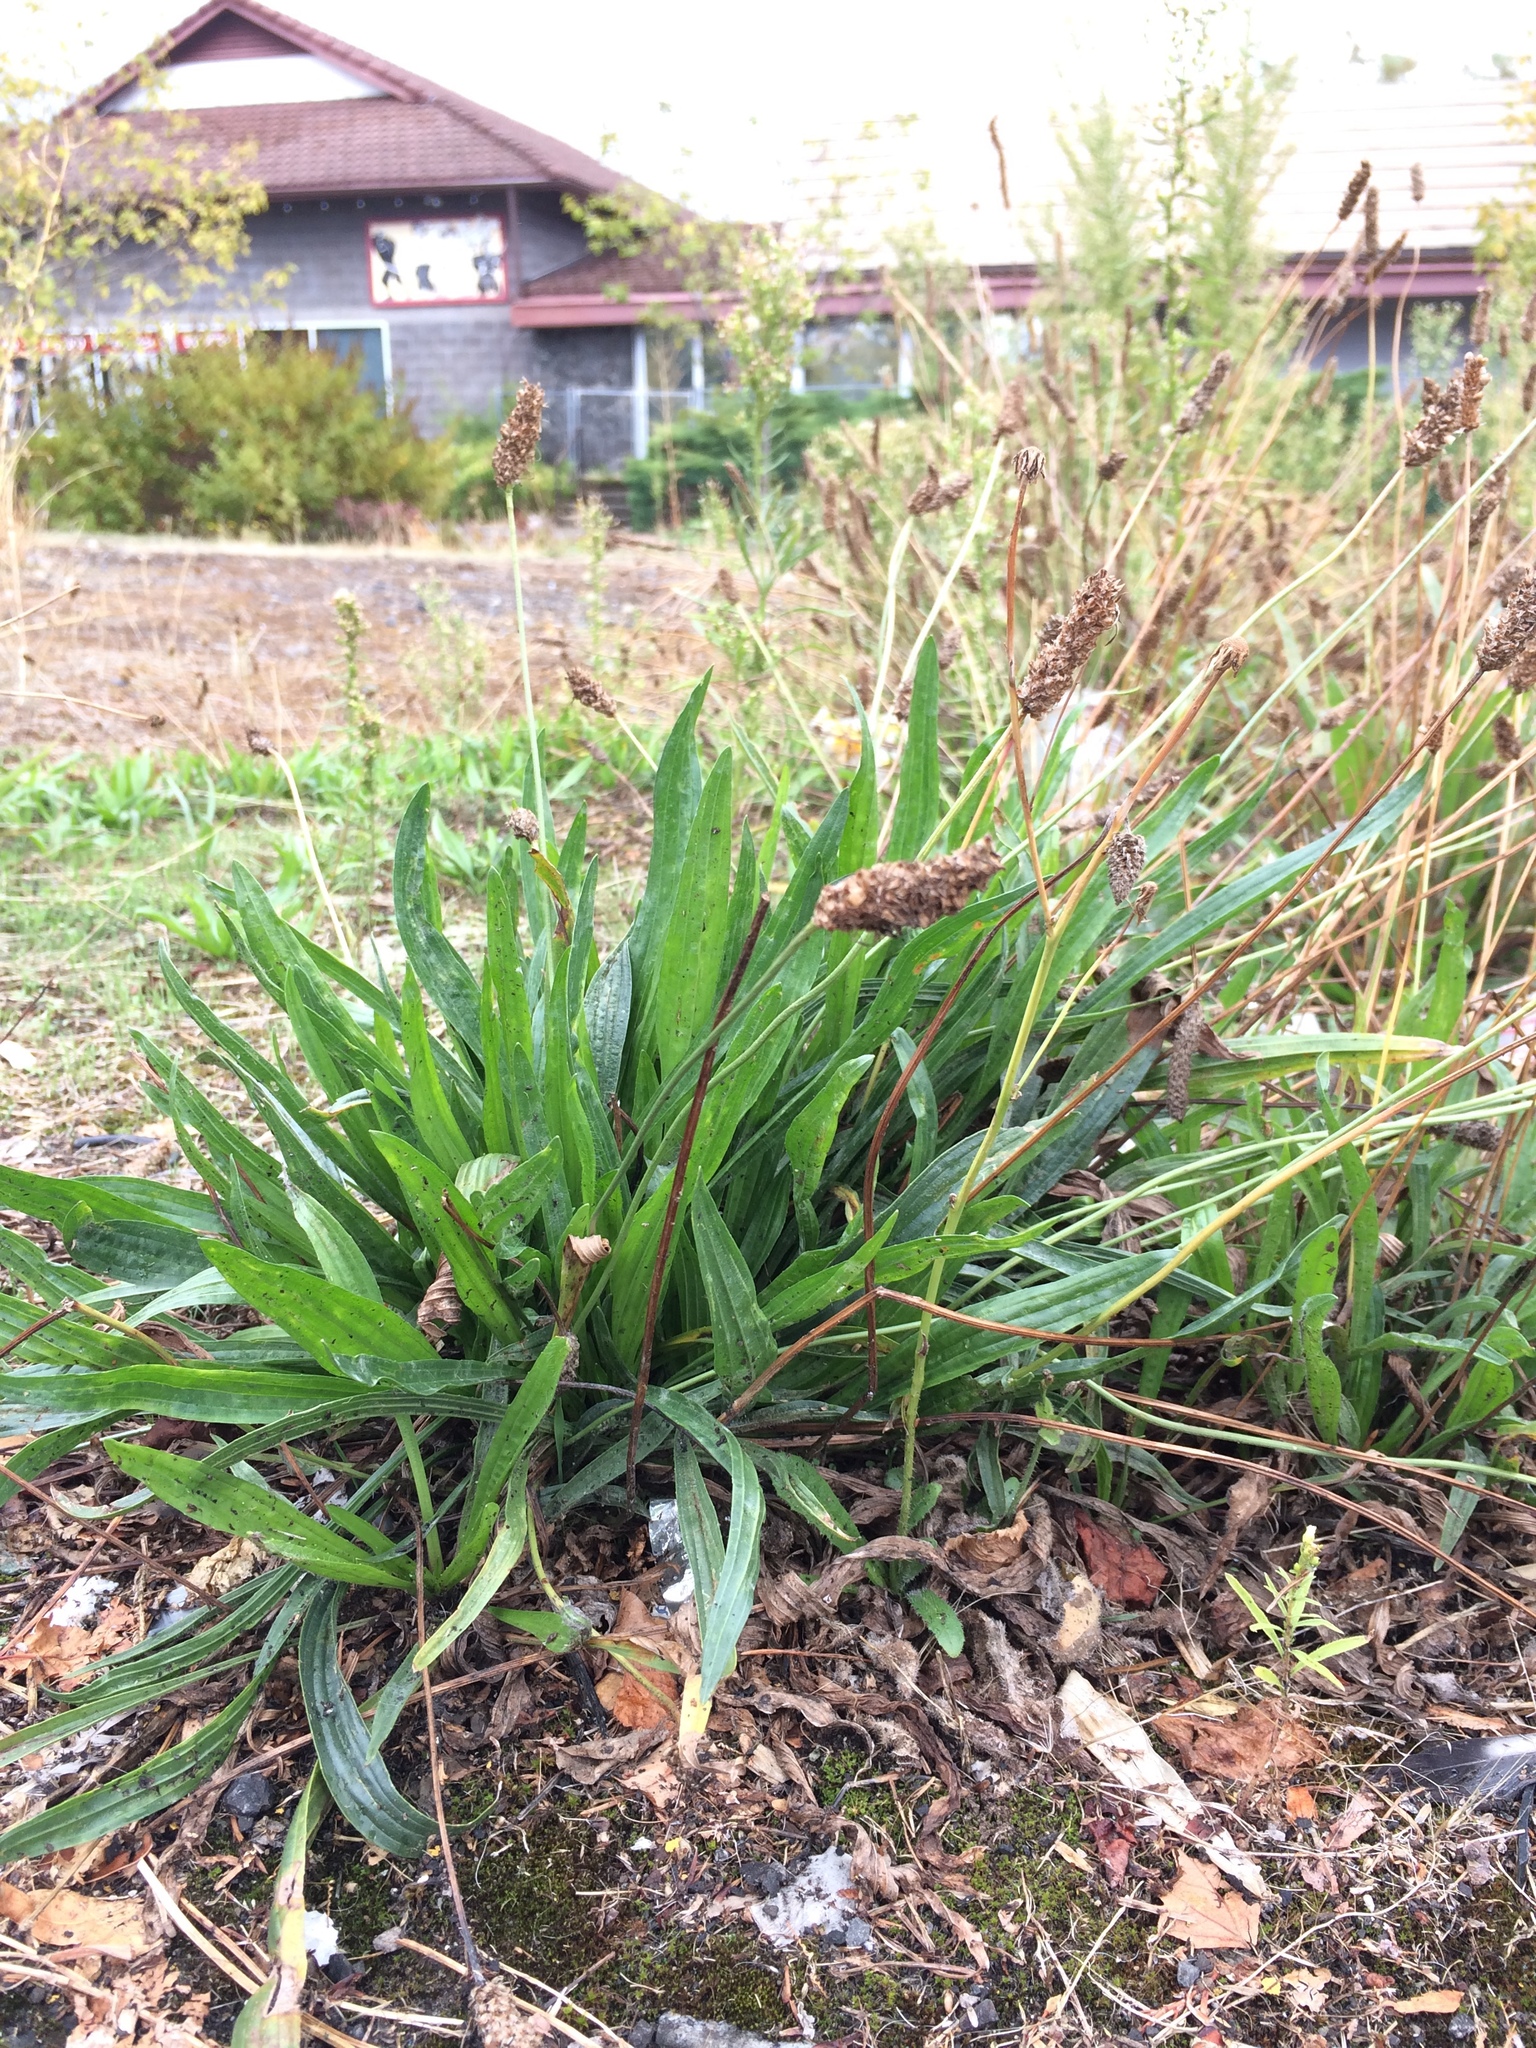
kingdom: Plantae
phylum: Tracheophyta
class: Magnoliopsida
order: Lamiales
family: Plantaginaceae
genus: Plantago
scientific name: Plantago lanceolata
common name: Ribwort plantain
